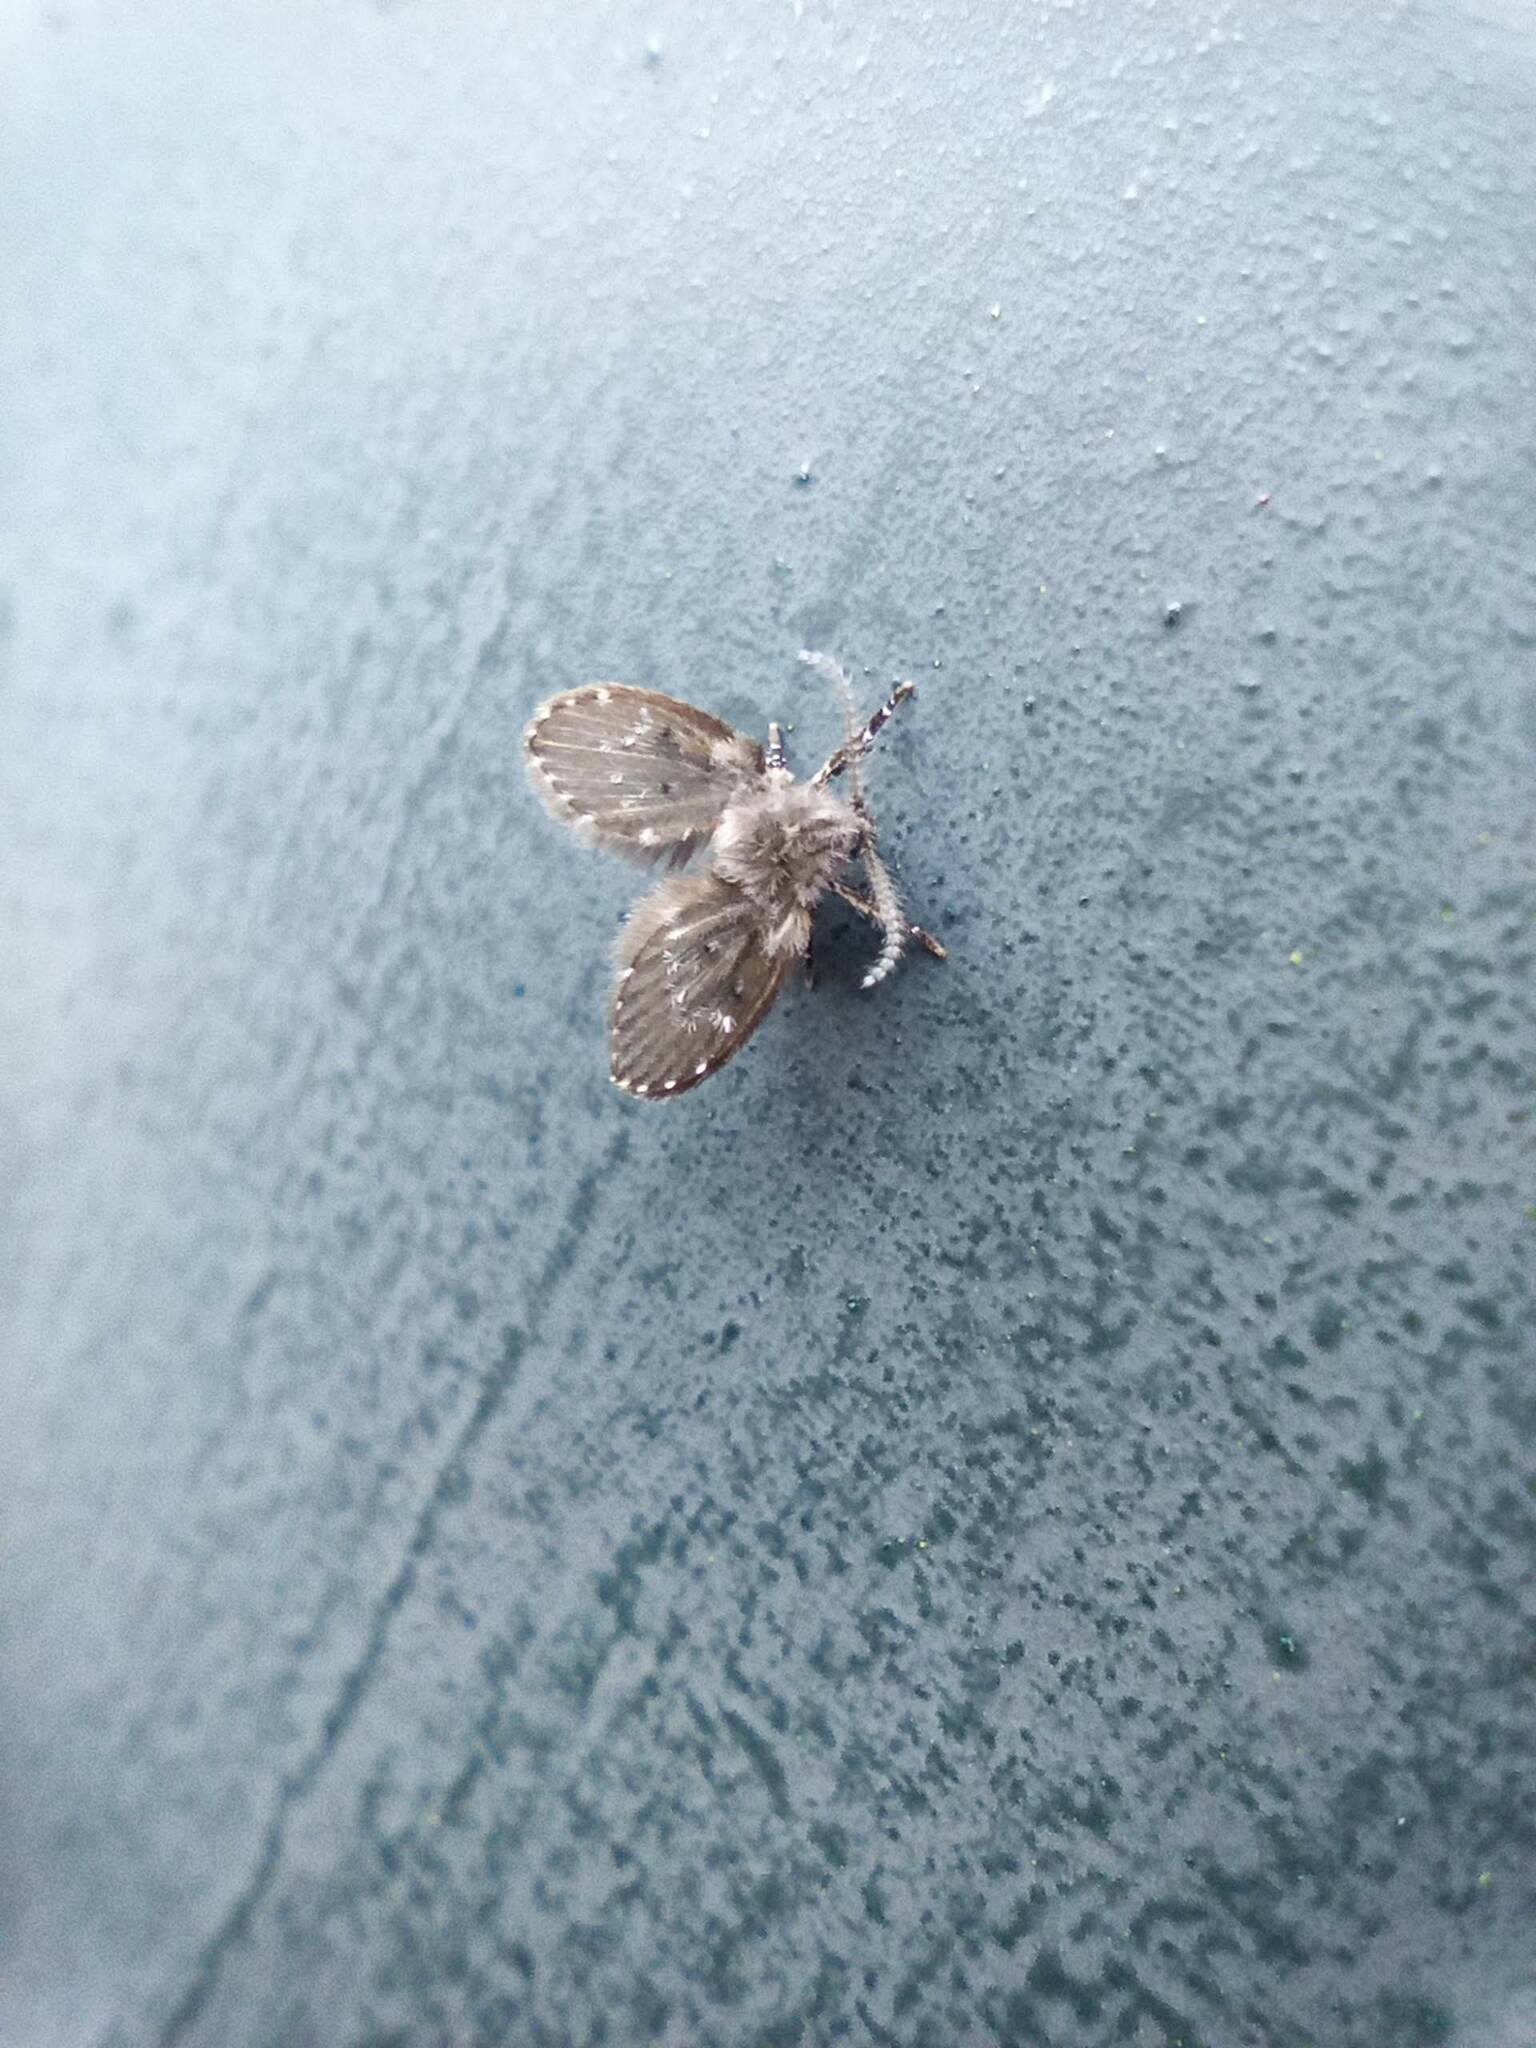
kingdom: Animalia
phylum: Arthropoda
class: Insecta
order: Diptera
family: Psychodidae
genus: Clogmia
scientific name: Clogmia albipunctatus
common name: White-spotted moth fly
